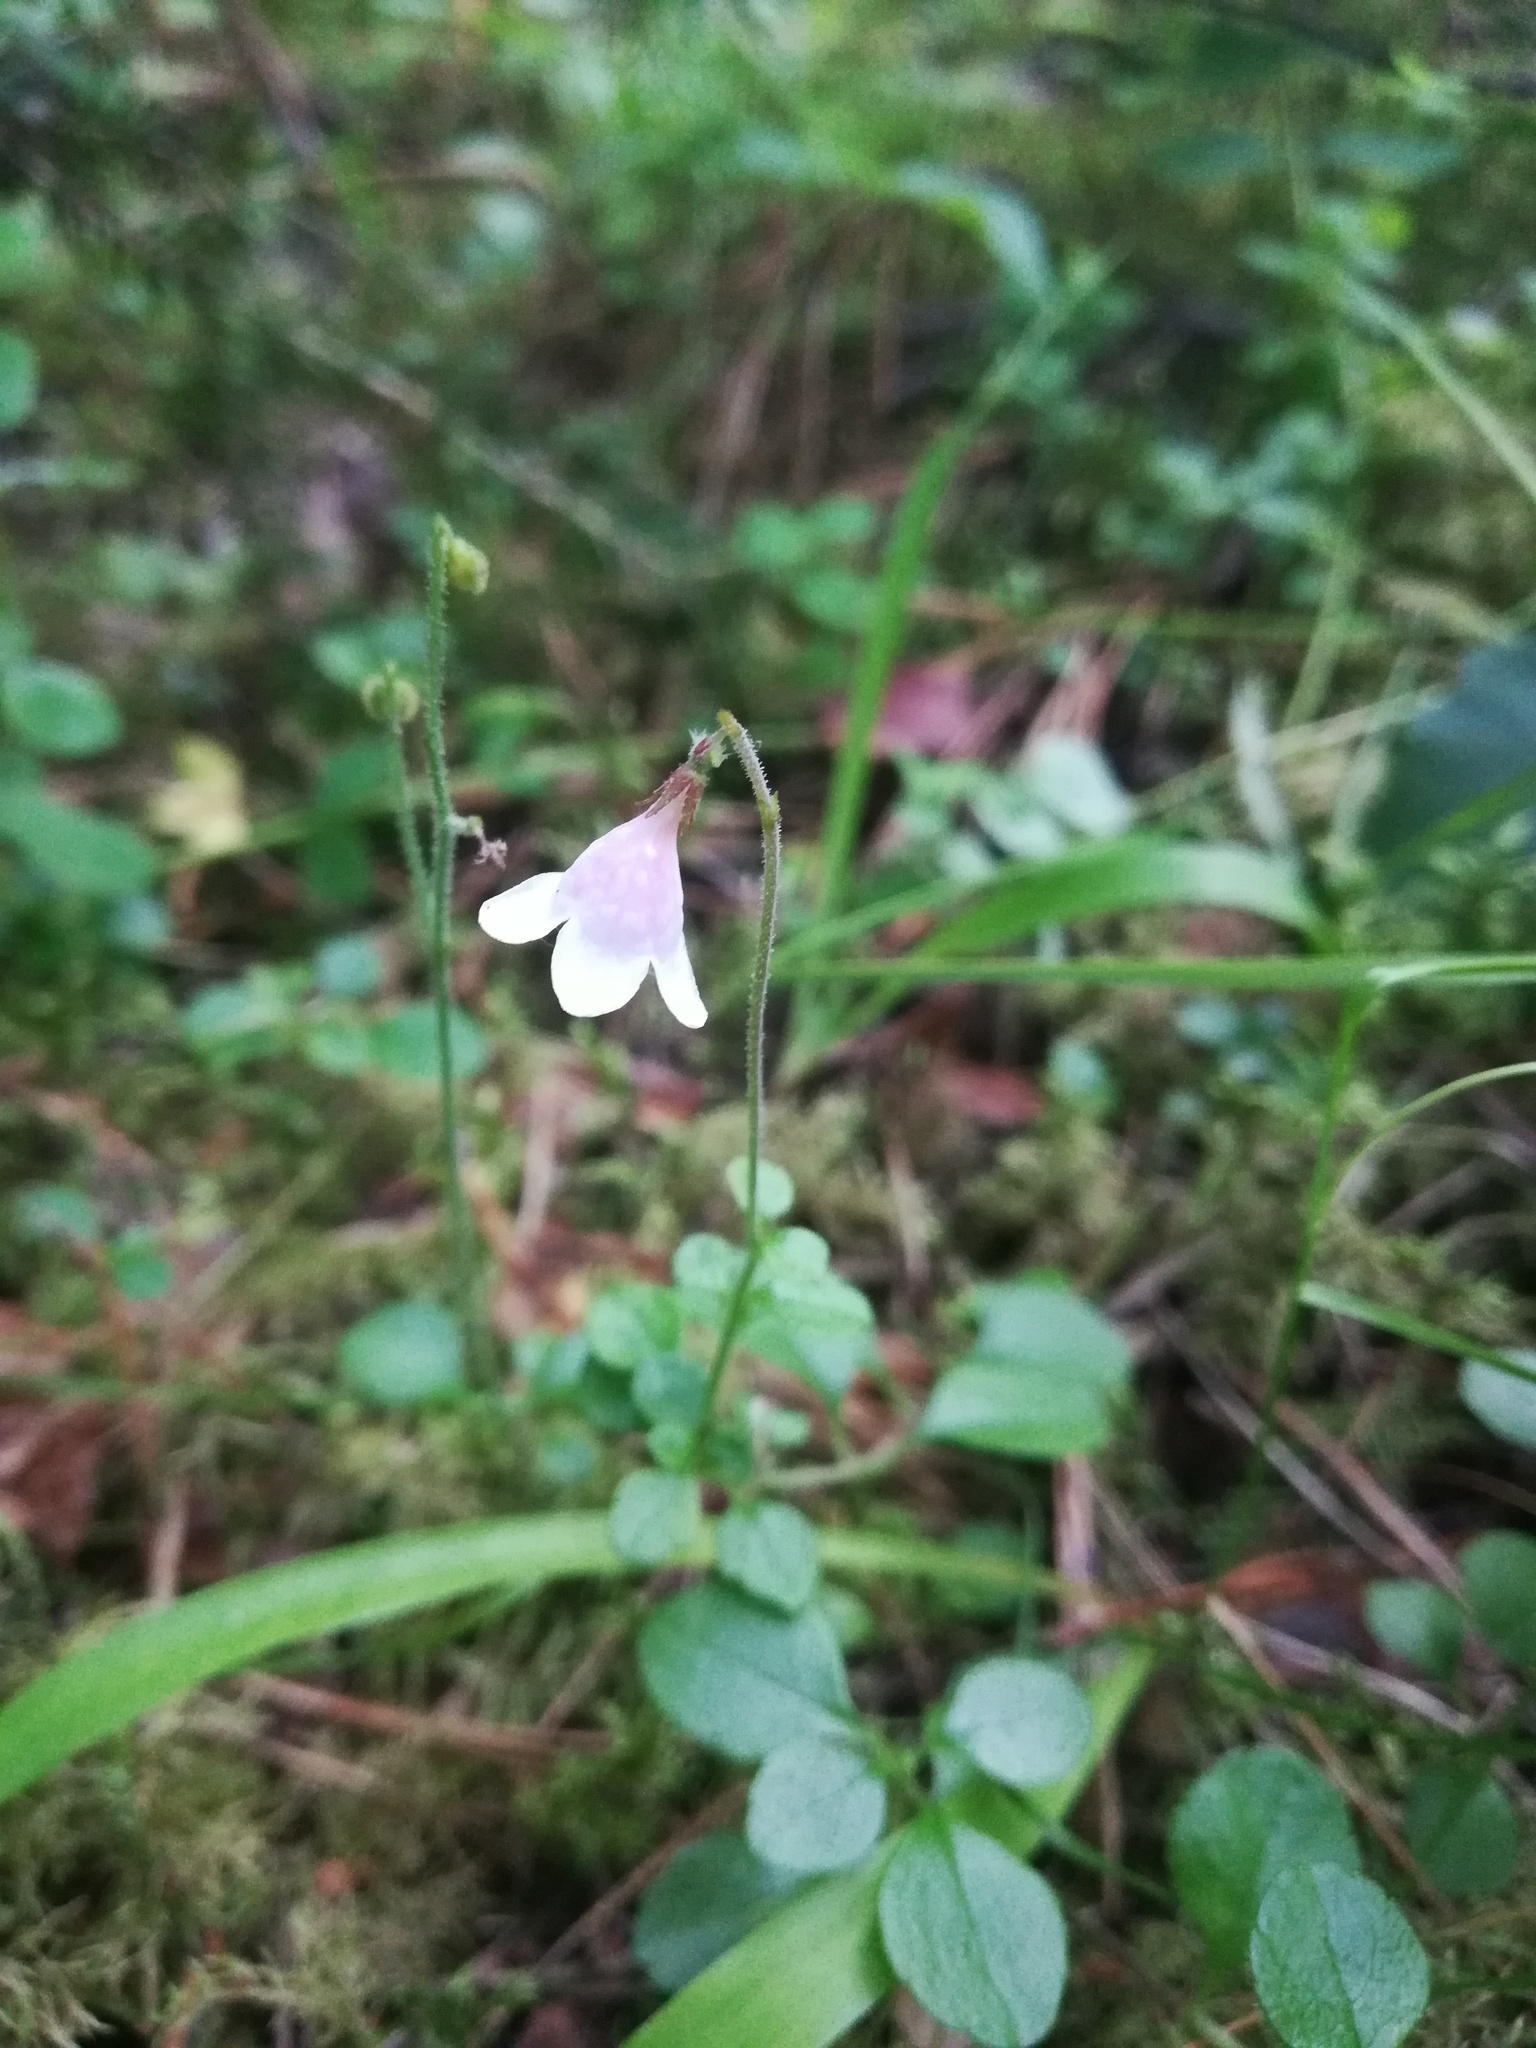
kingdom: Plantae
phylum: Tracheophyta
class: Magnoliopsida
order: Dipsacales
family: Caprifoliaceae
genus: Linnaea
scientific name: Linnaea borealis
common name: Twinflower
